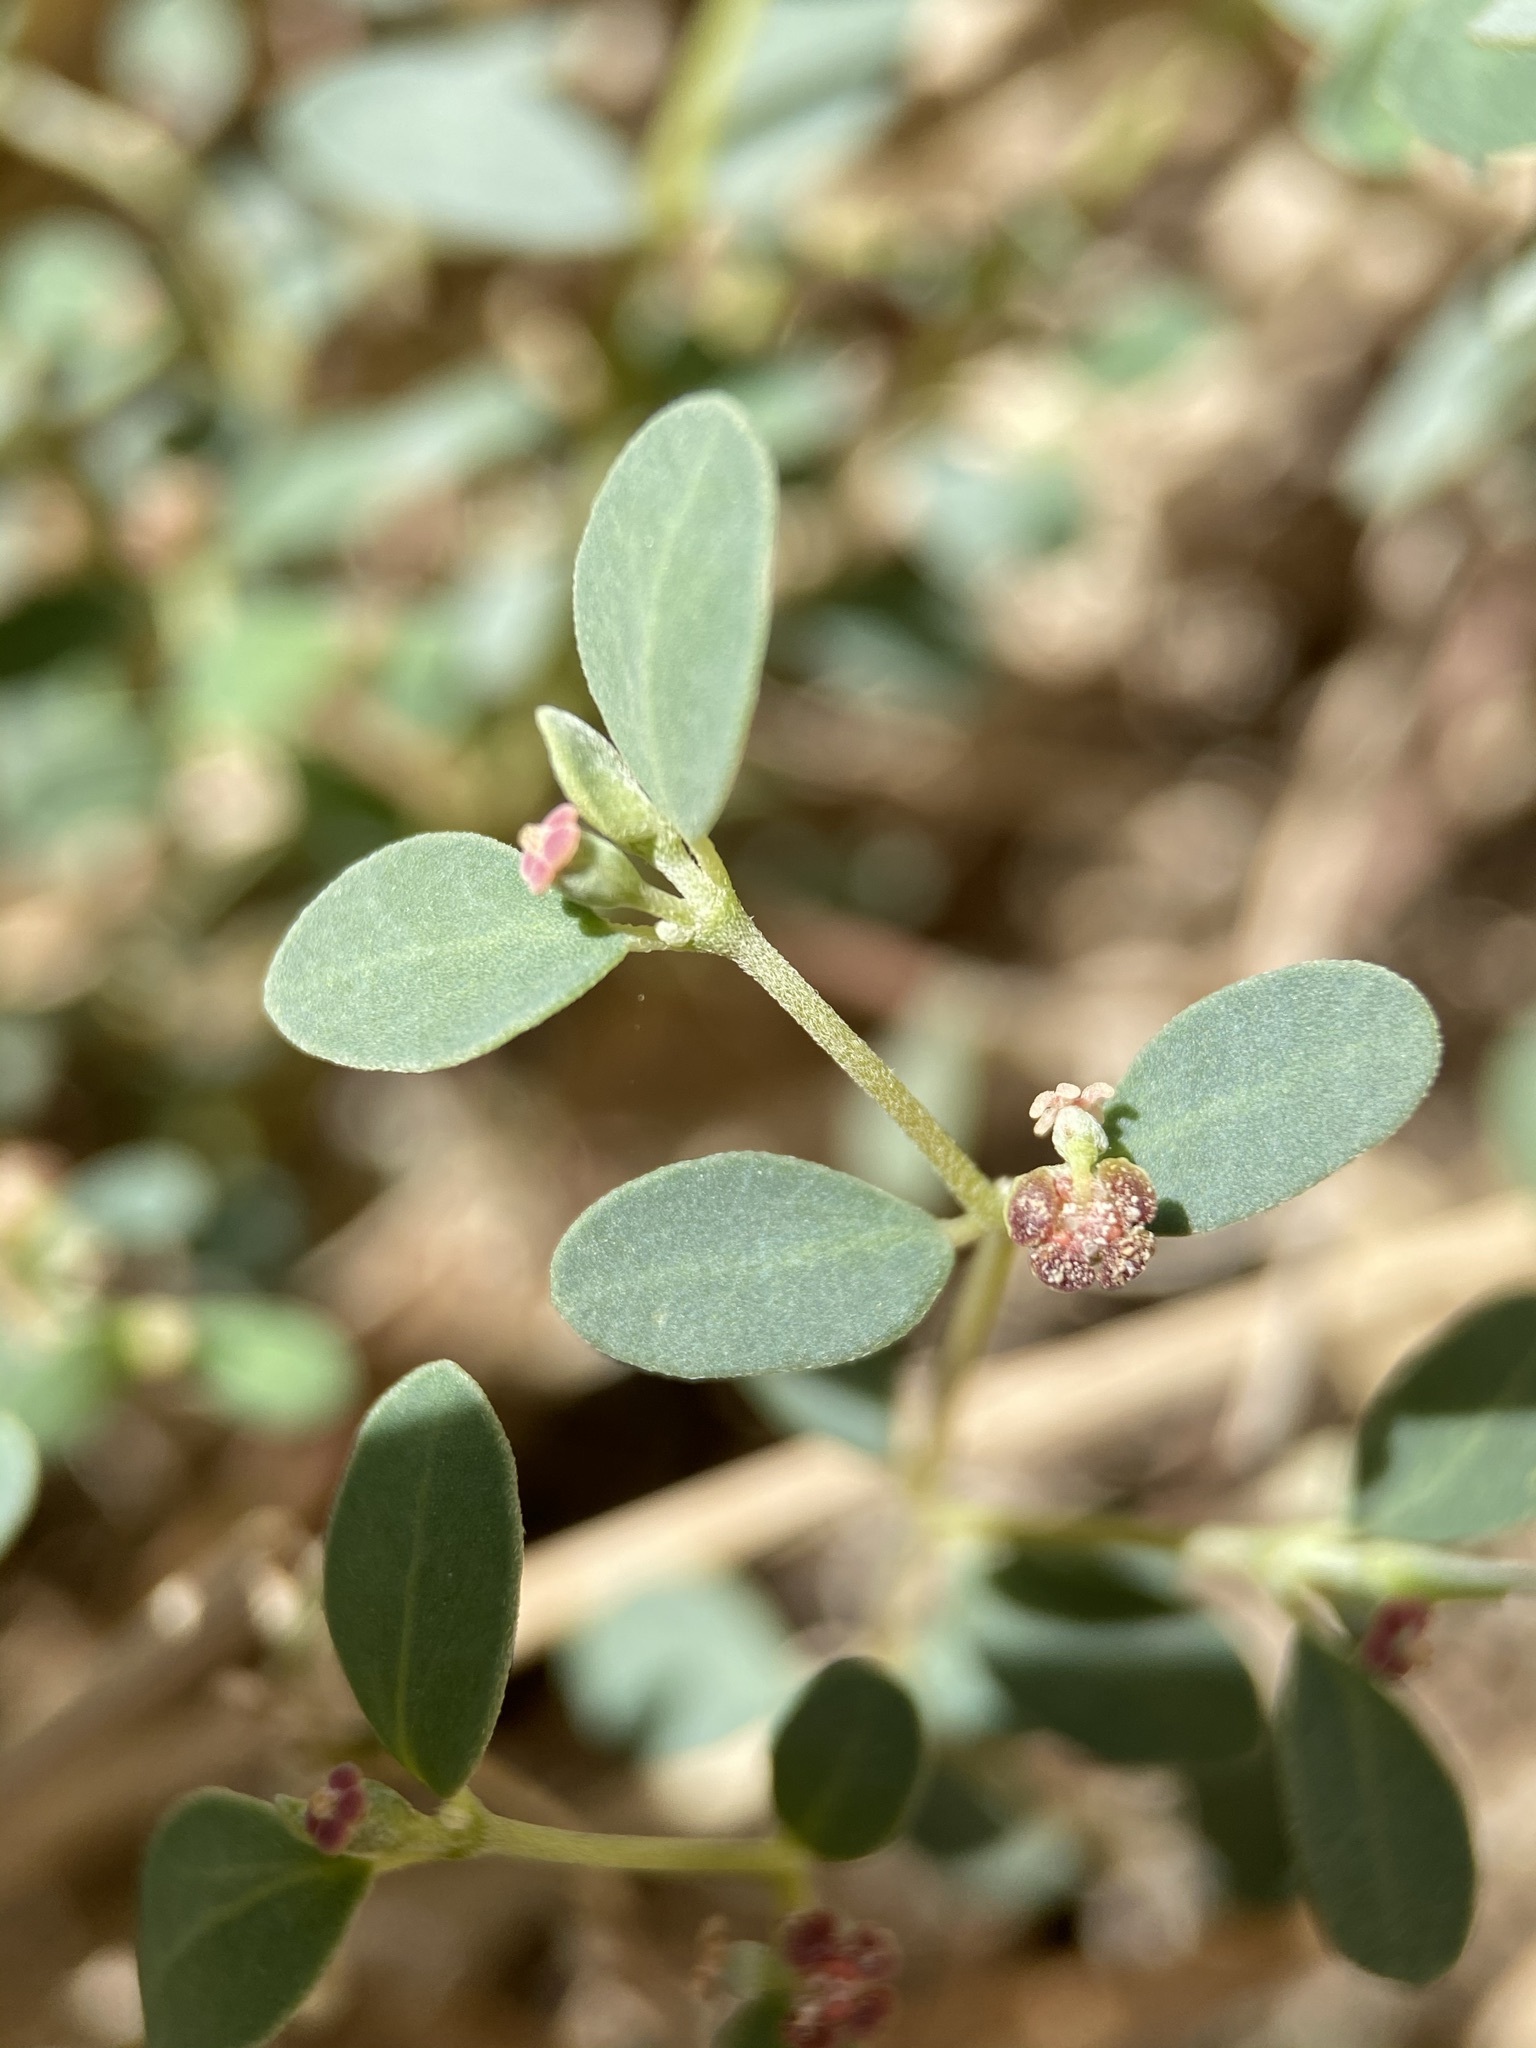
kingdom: Plantae
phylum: Tracheophyta
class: Magnoliopsida
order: Malpighiales
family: Euphorbiaceae
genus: Euphorbia
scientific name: Euphorbia cinerascens
